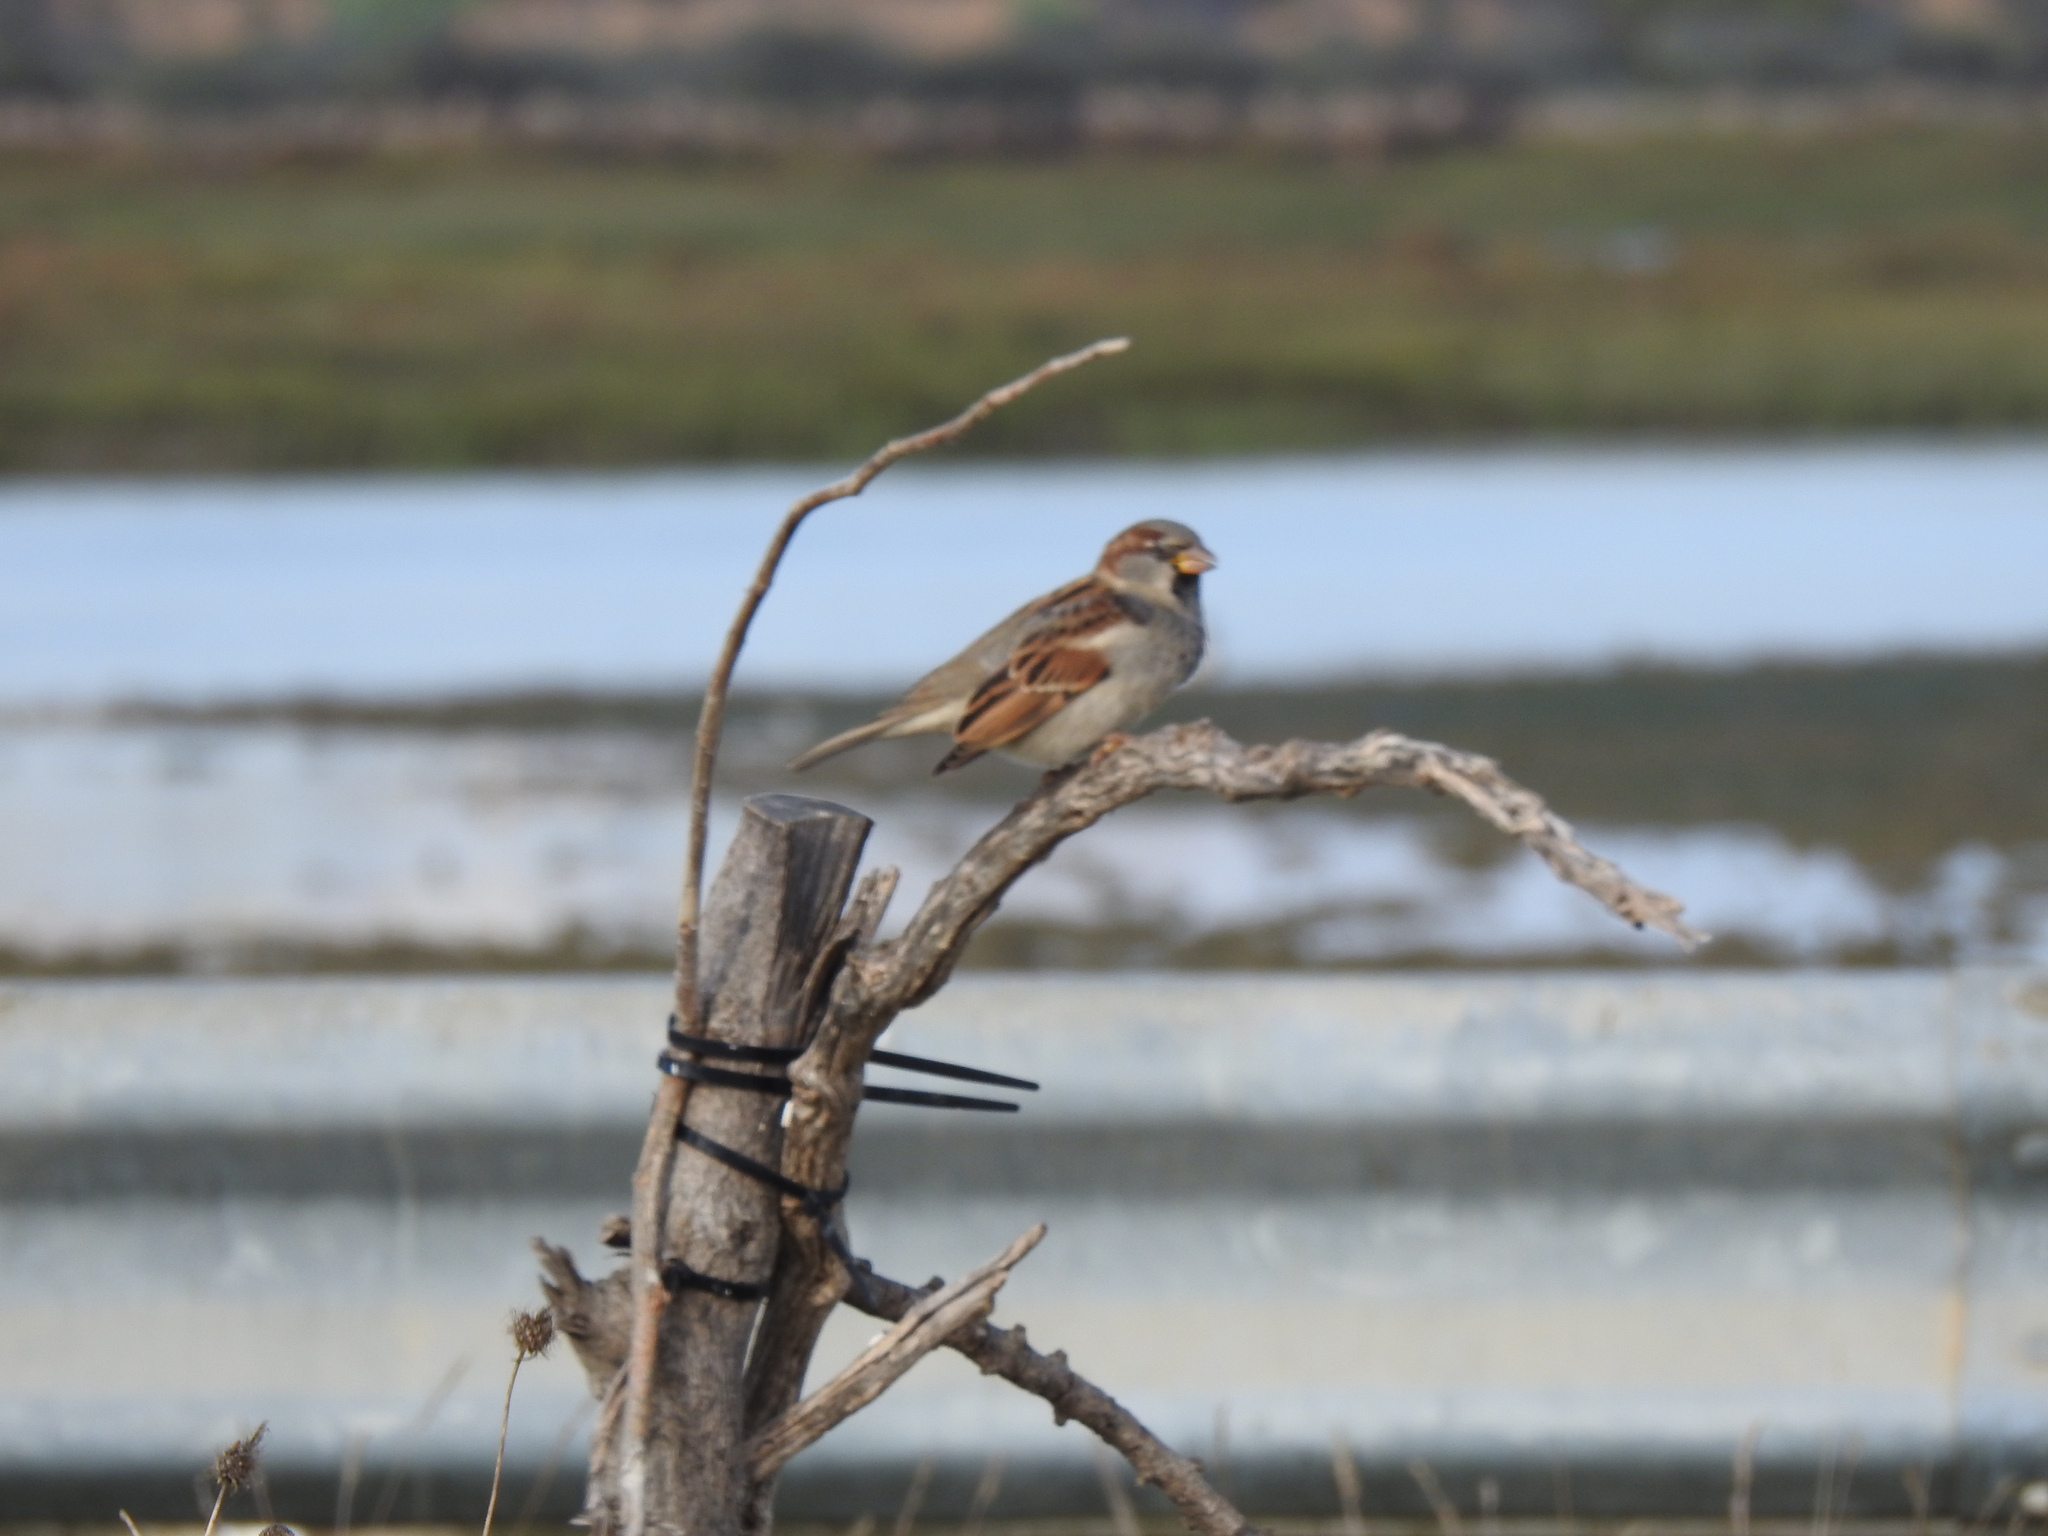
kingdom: Animalia
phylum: Chordata
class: Aves
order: Passeriformes
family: Passeridae
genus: Passer
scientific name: Passer domesticus
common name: House sparrow
